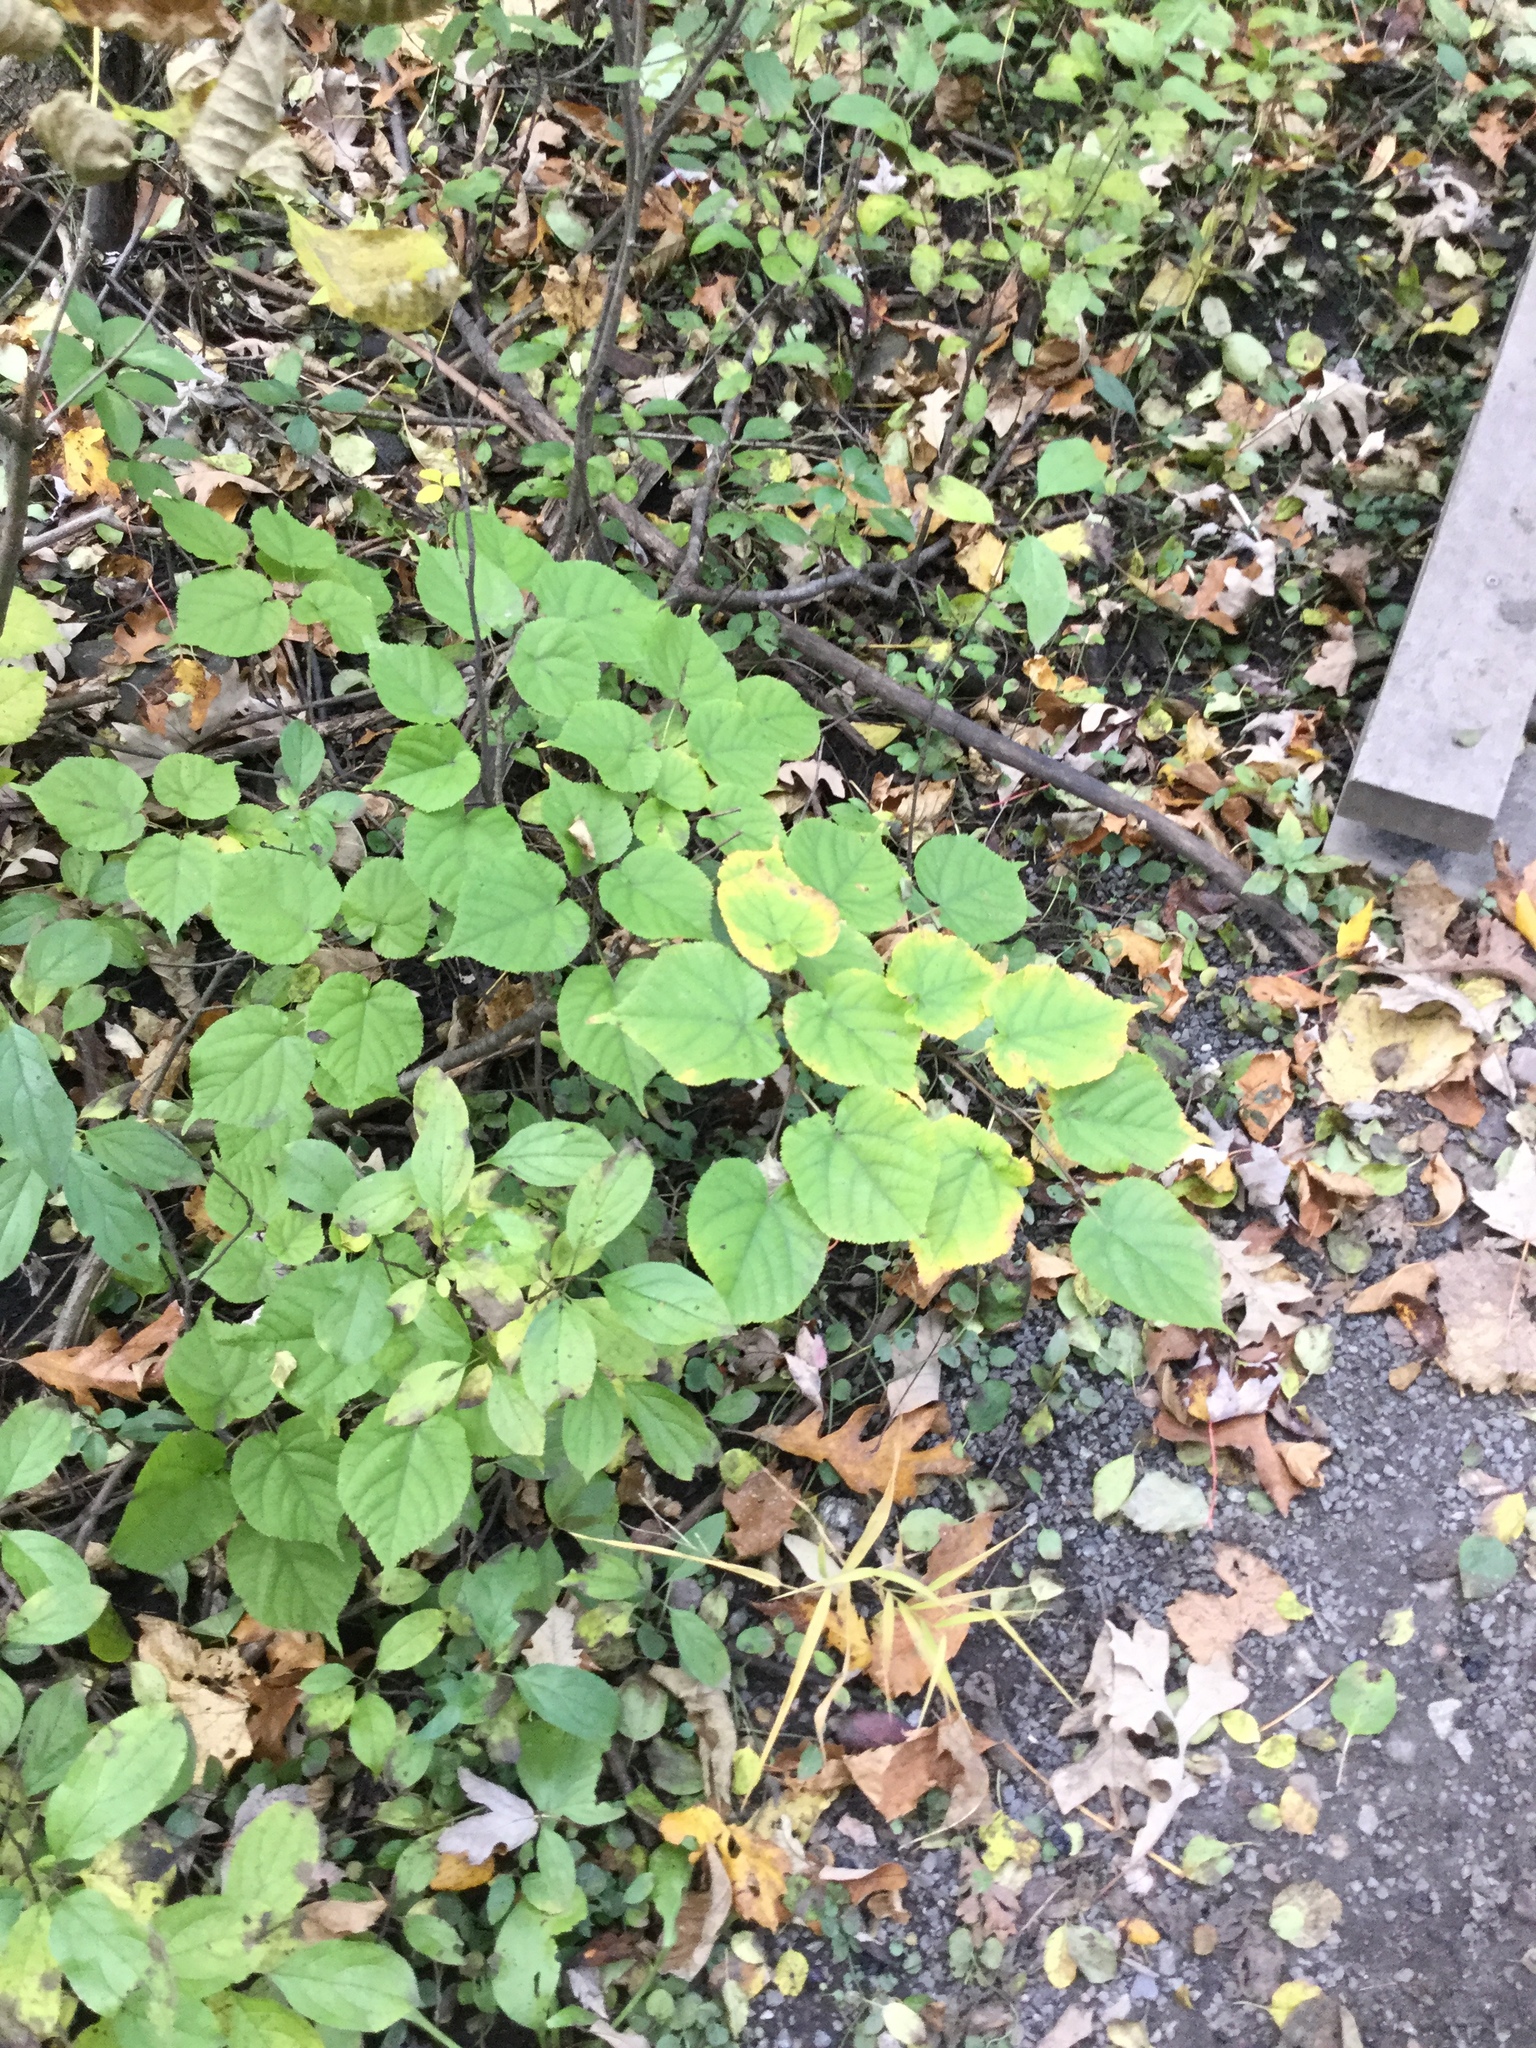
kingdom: Plantae
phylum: Tracheophyta
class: Magnoliopsida
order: Malvales
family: Malvaceae
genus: Tilia
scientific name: Tilia cordata
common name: Small-leaved lime
